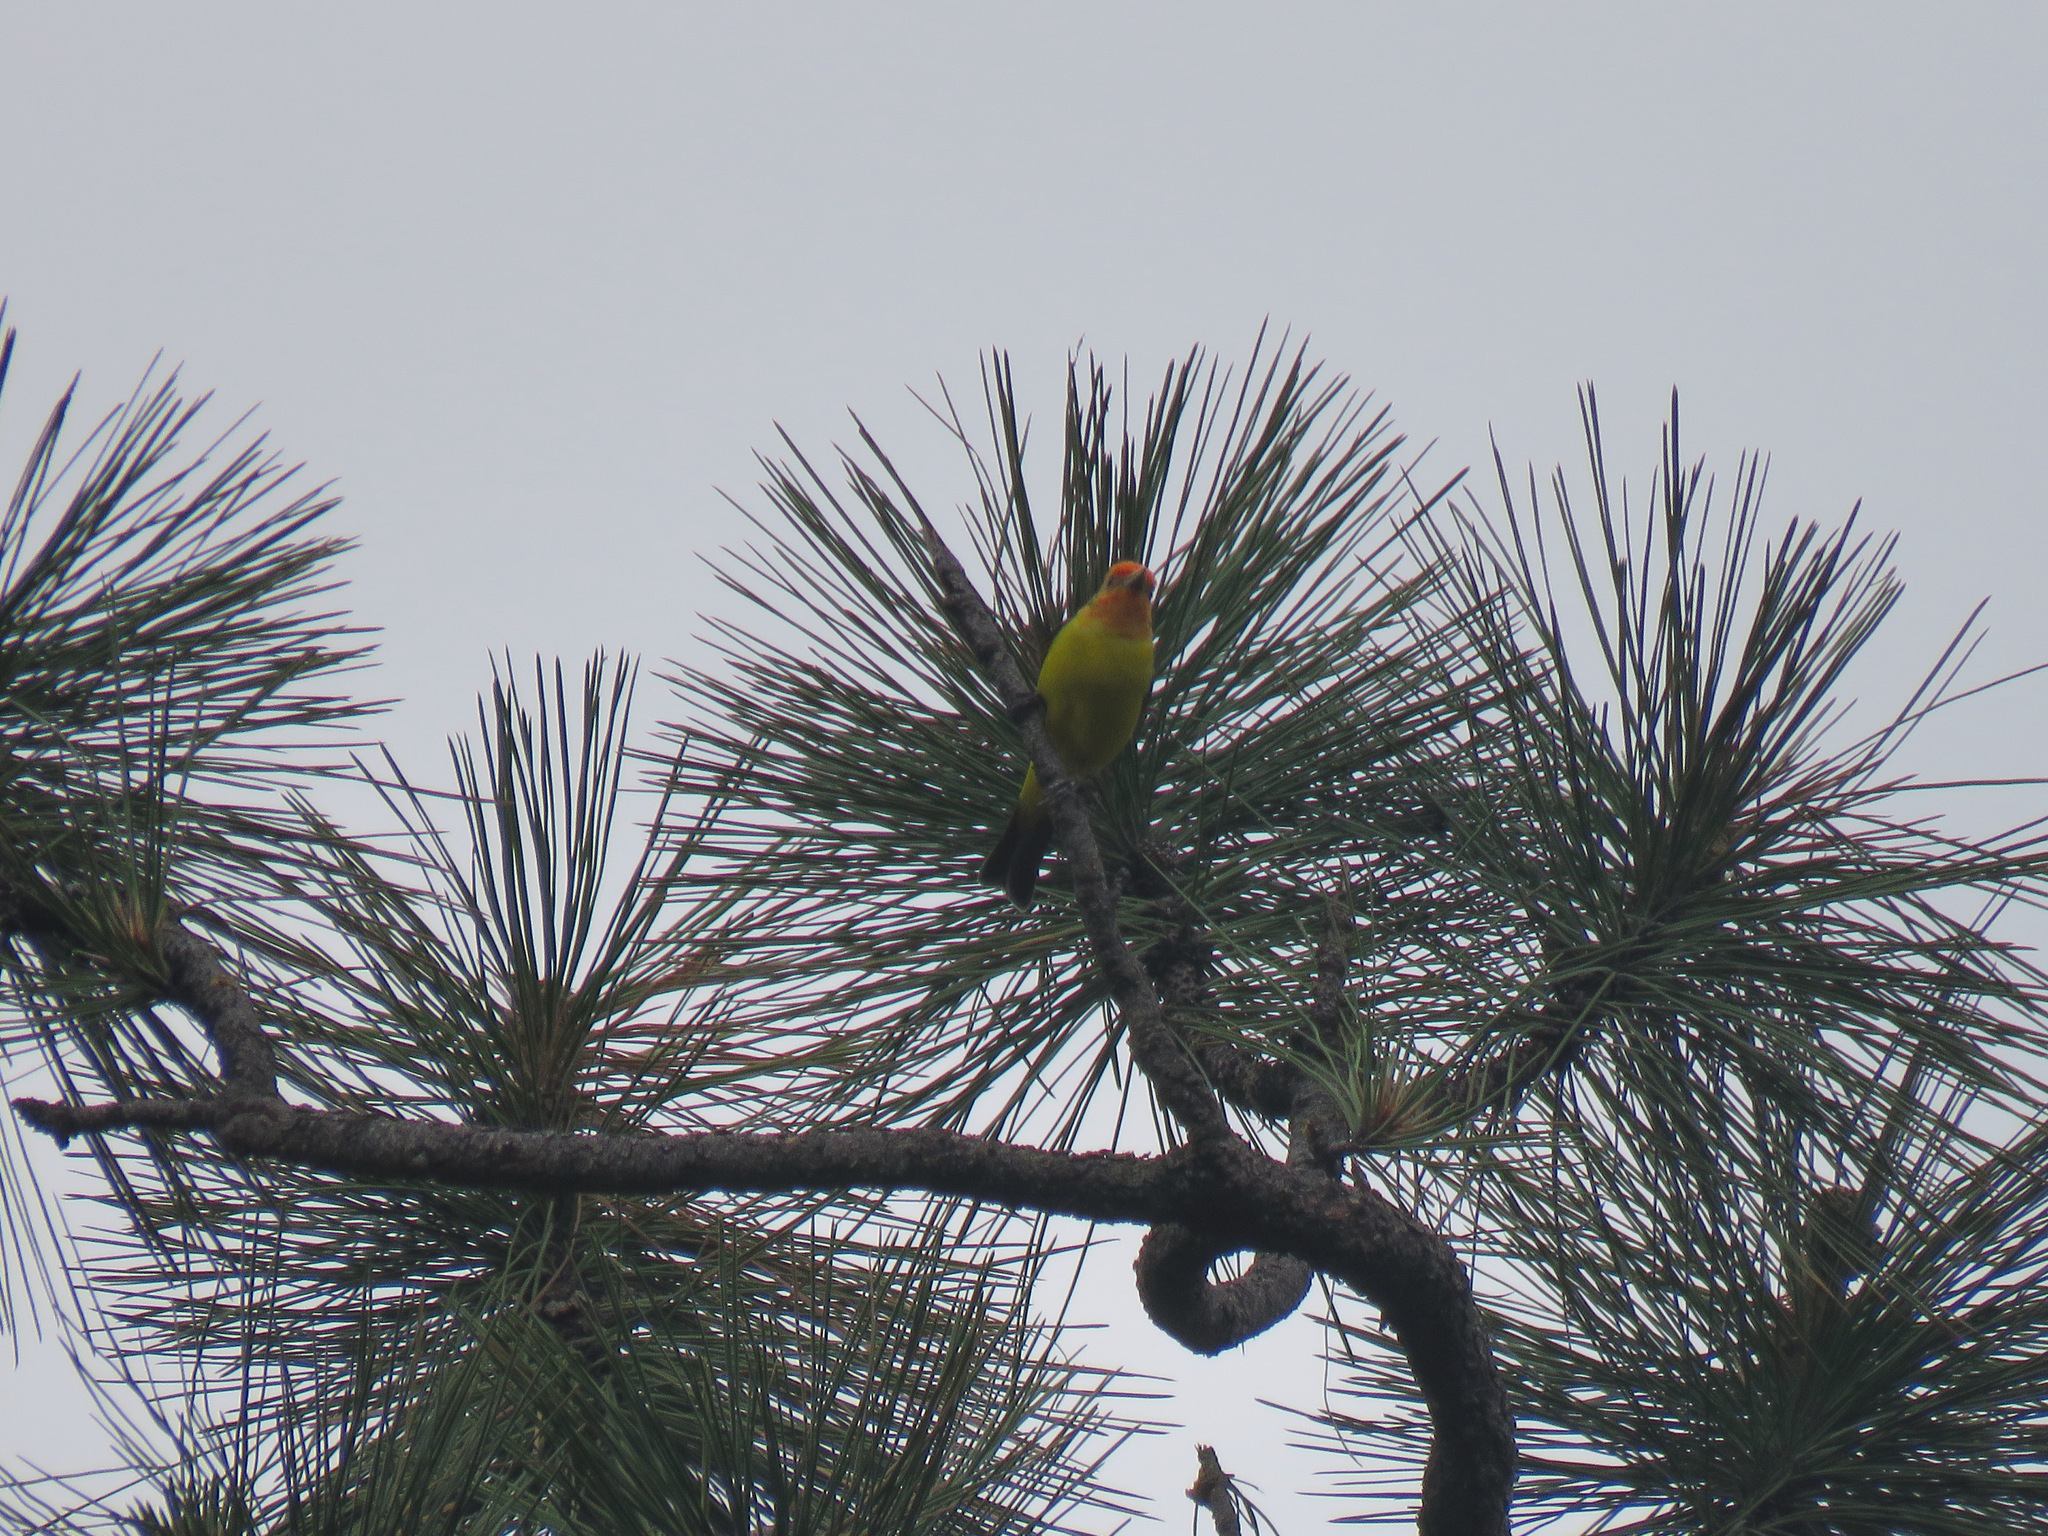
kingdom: Animalia
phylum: Chordata
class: Aves
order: Passeriformes
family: Cardinalidae
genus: Piranga
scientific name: Piranga ludoviciana
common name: Western tanager
